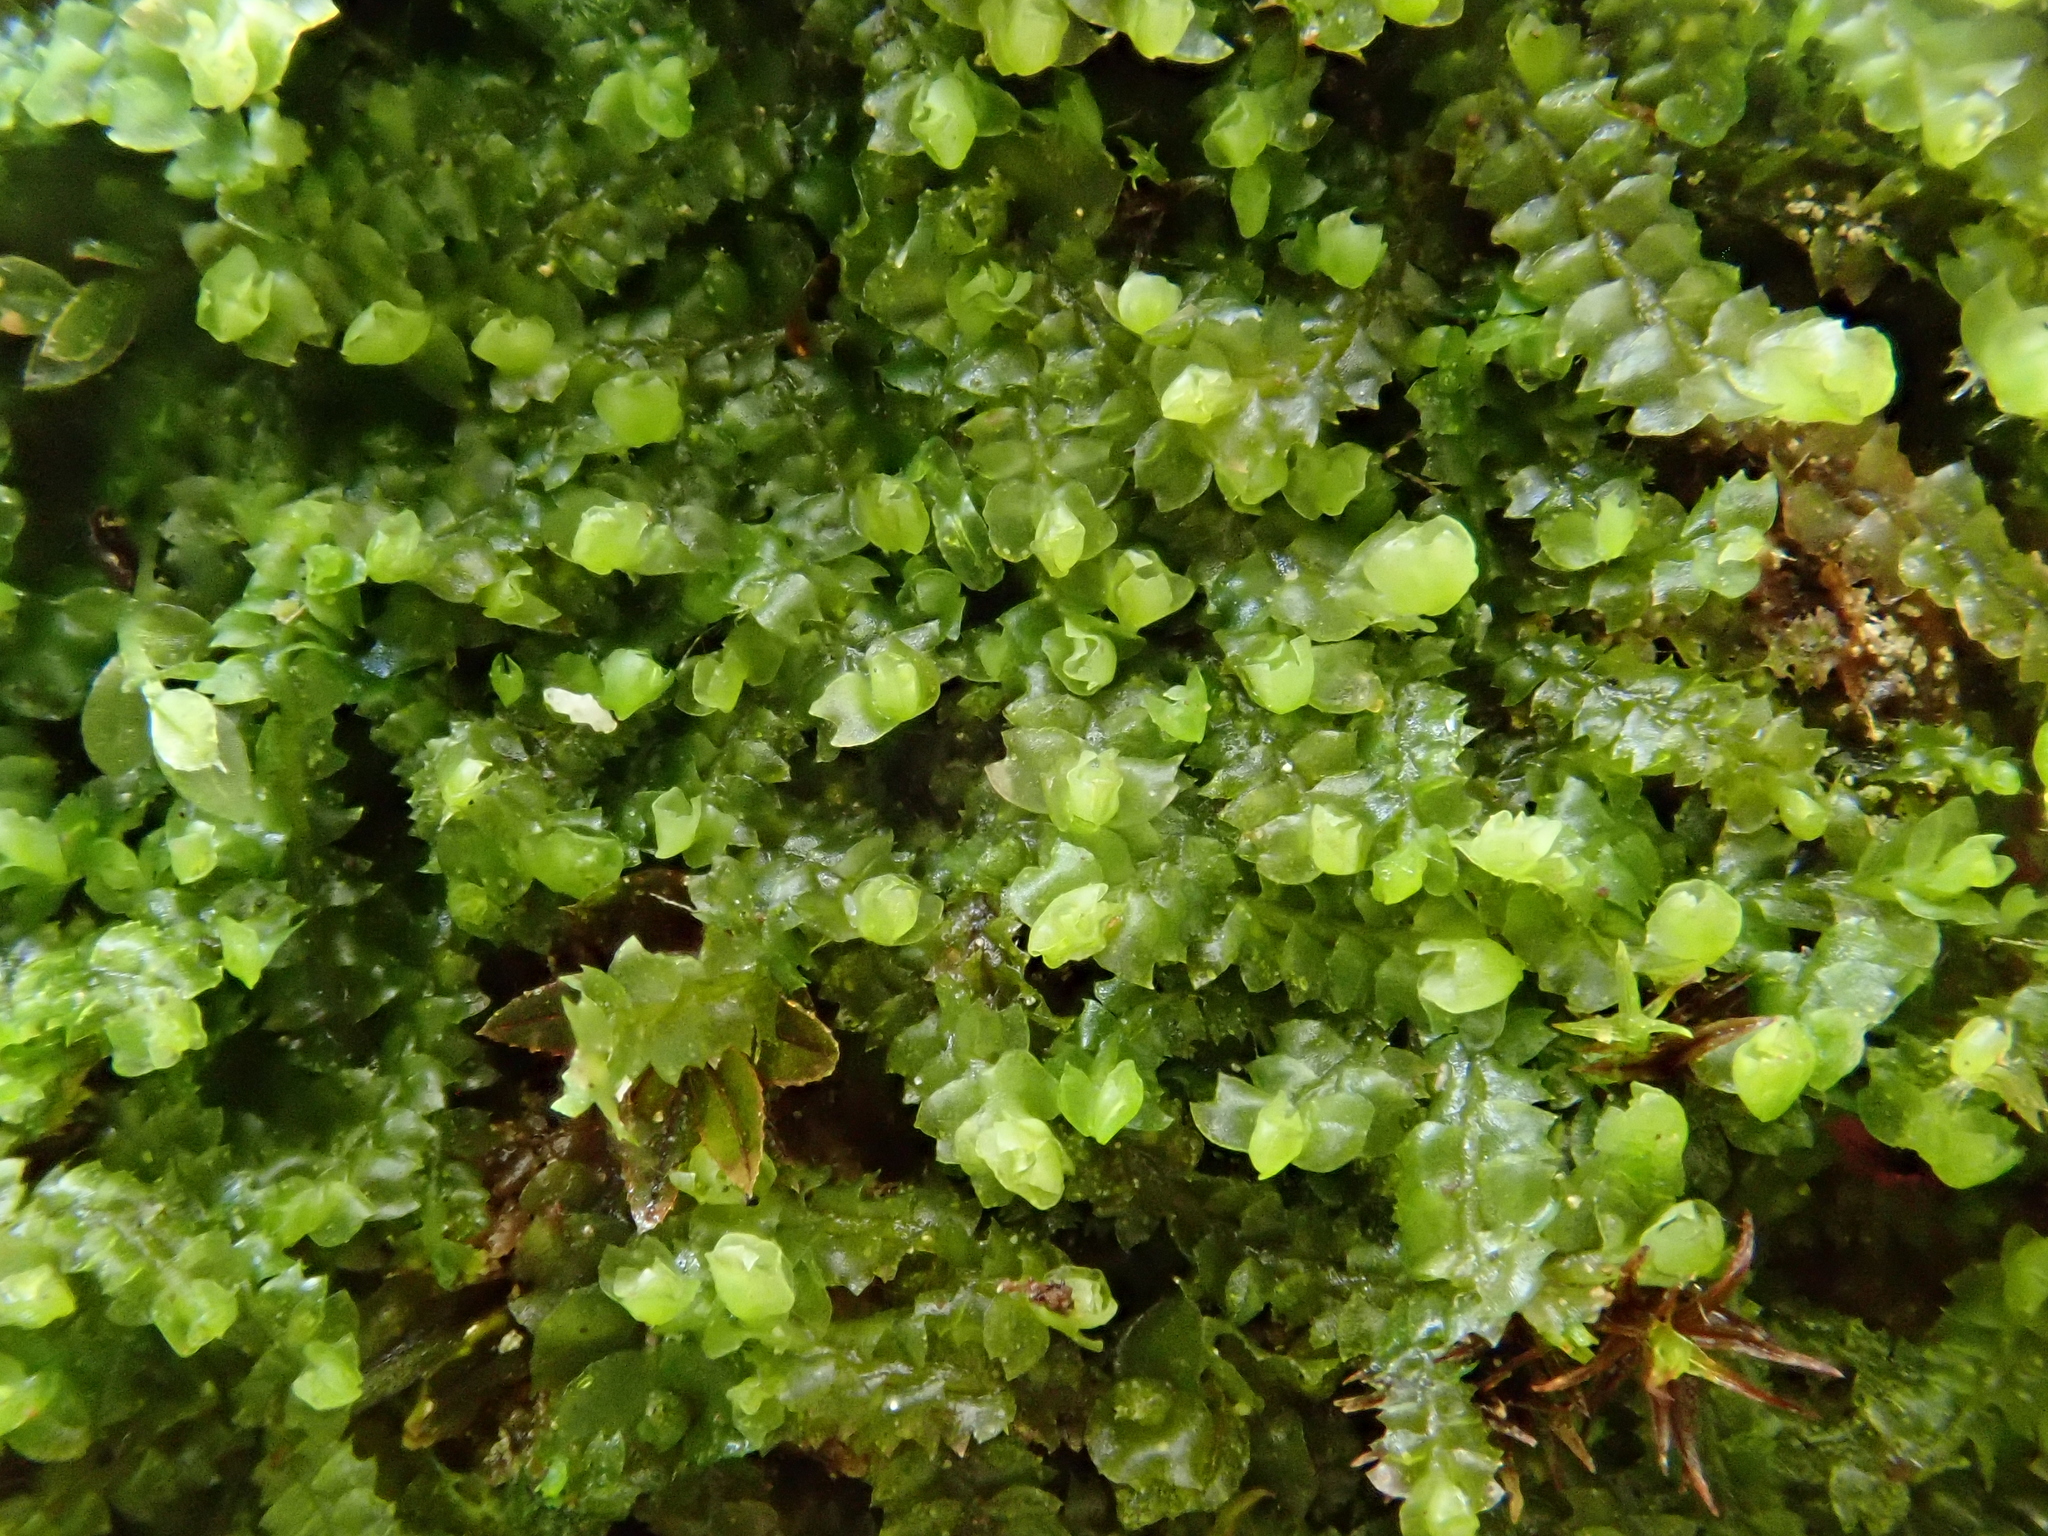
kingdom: Plantae
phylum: Marchantiophyta
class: Jungermanniopsida
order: Jungermanniales
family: Jungermanniaceae
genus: Mesoptychia
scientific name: Mesoptychia collaris
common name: Collared notchwort
